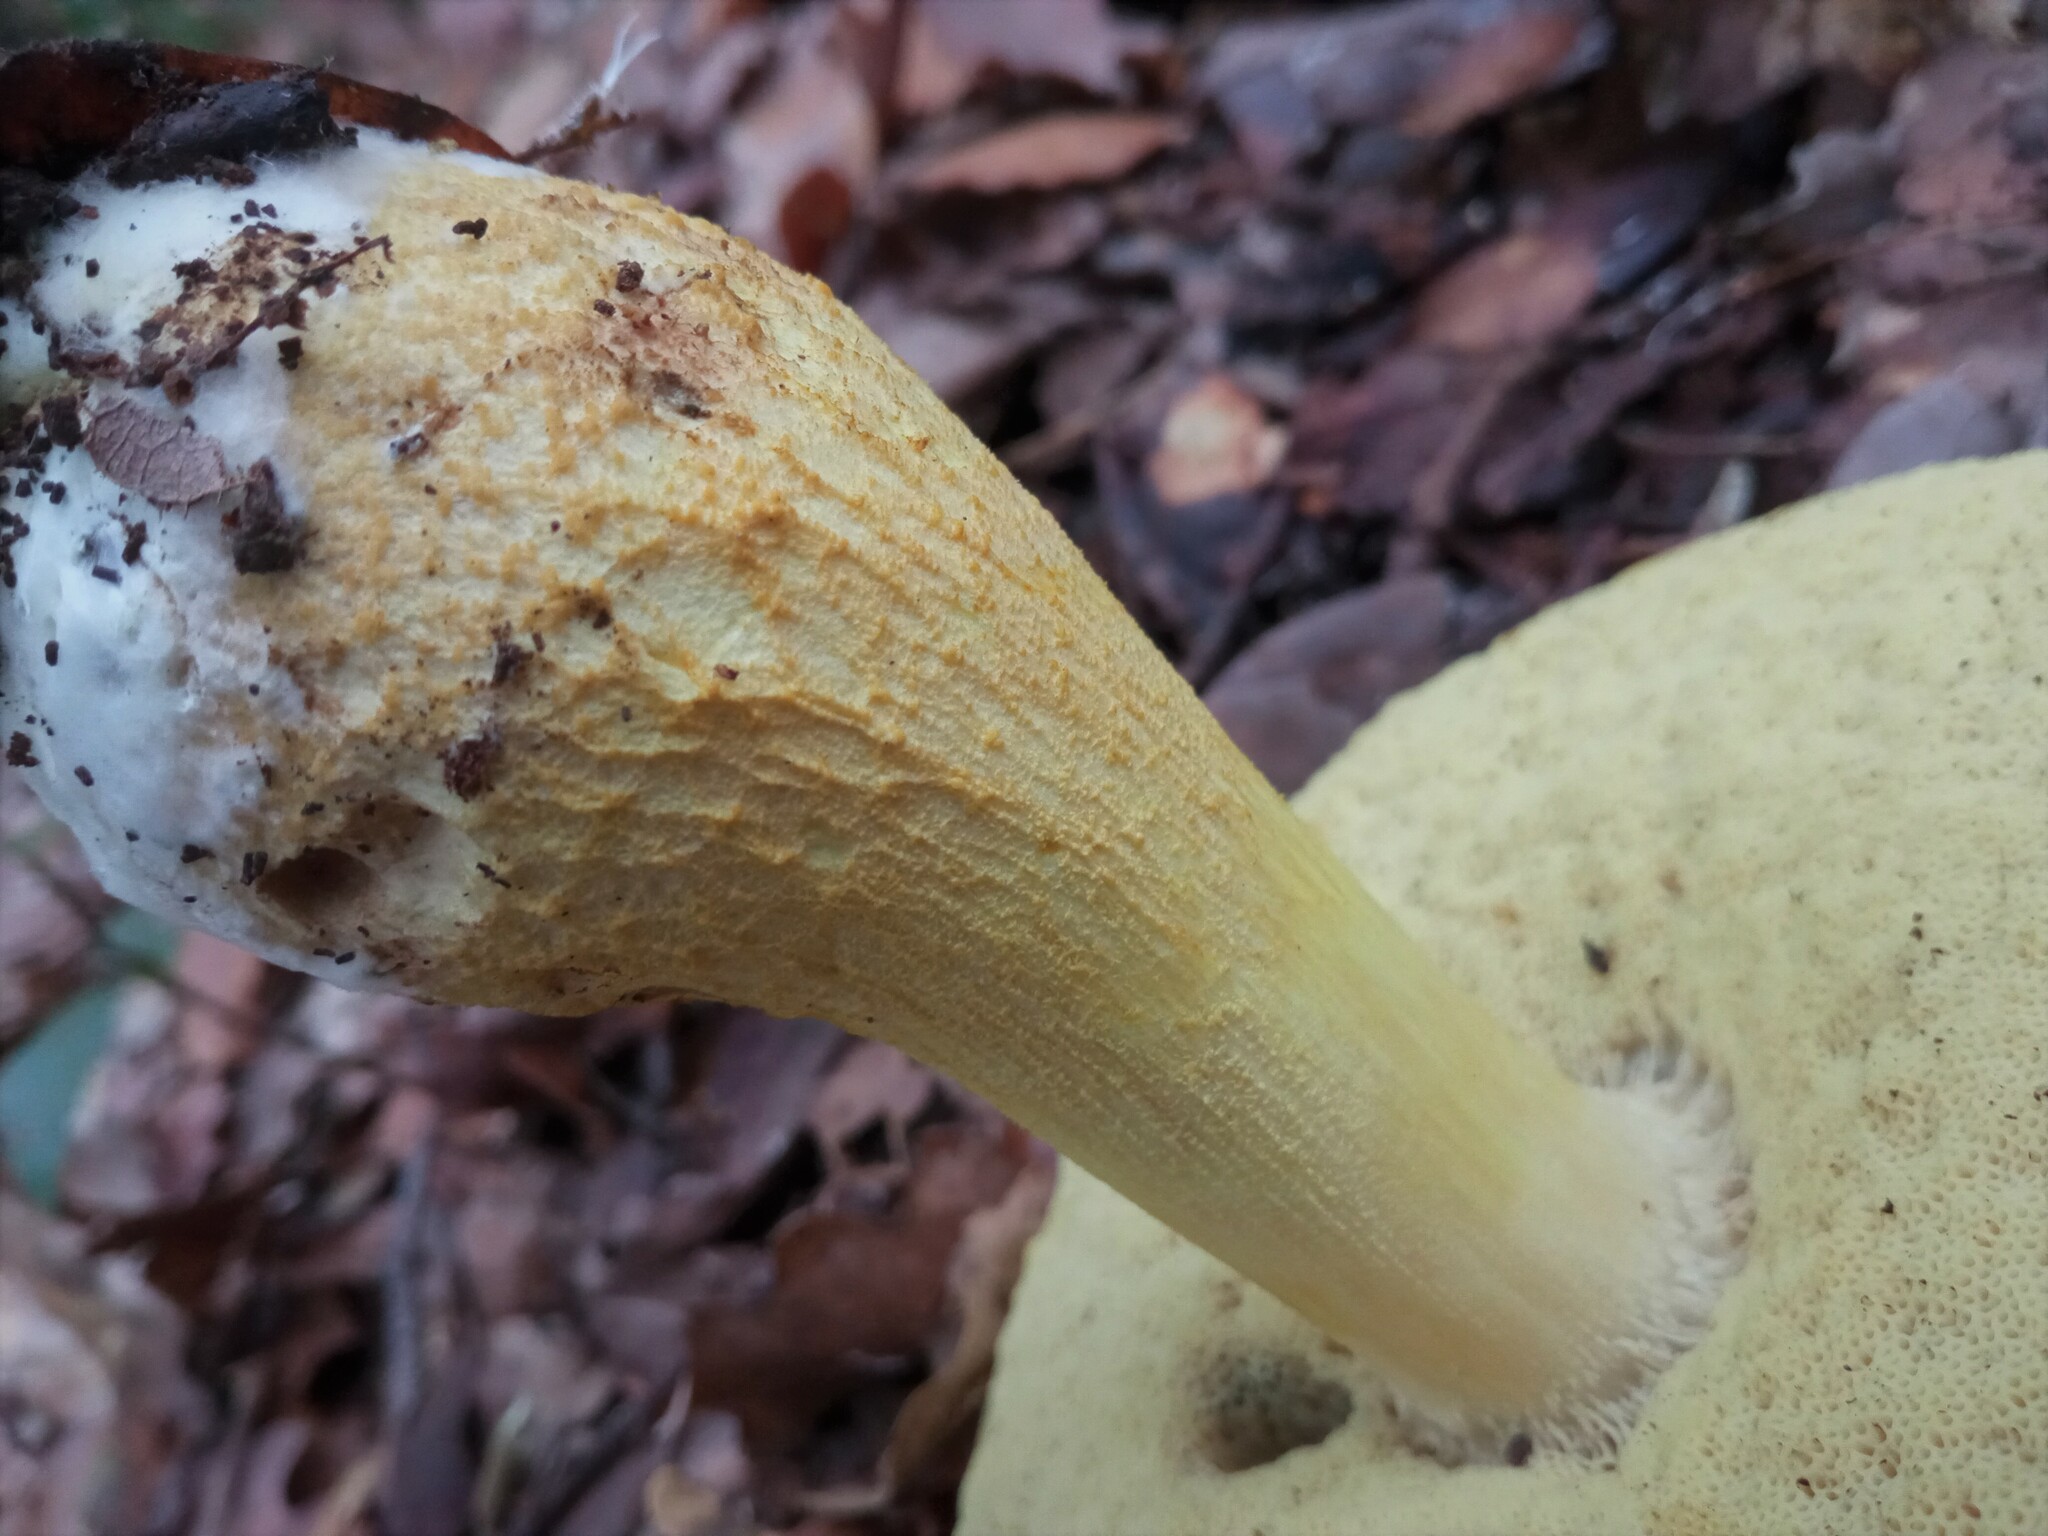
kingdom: Fungi
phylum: Basidiomycota
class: Agaricomycetes
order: Boletales
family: Boletaceae
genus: Leccinellum
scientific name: Leccinellum lepidum
